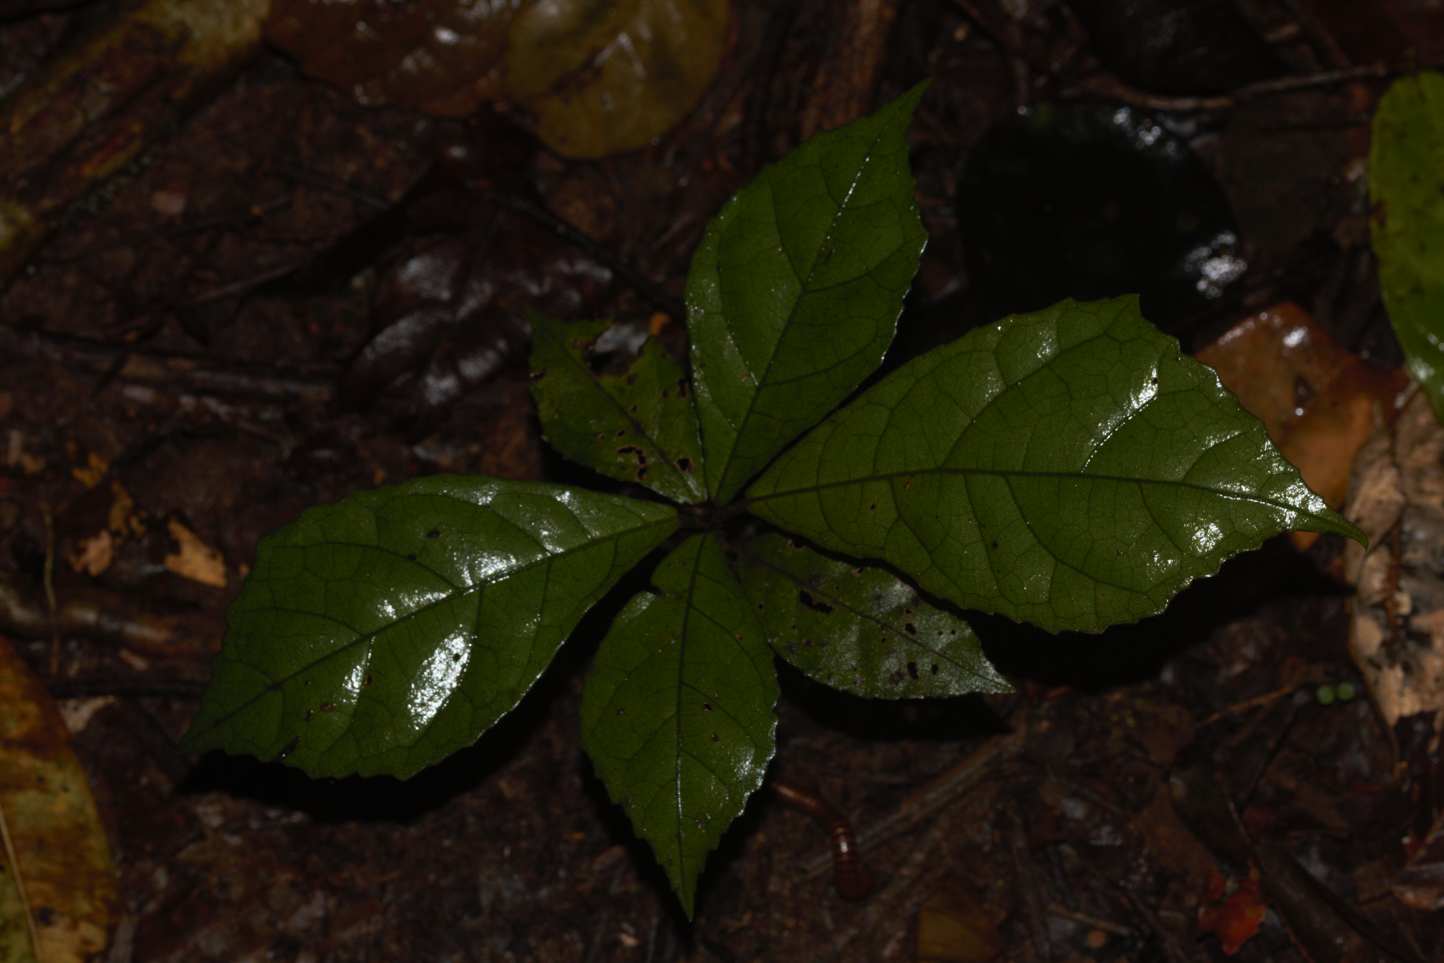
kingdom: Plantae
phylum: Tracheophyta
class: Magnoliopsida
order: Malvales
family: Malvaceae
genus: Pavonia
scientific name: Pavonia castaneifolia
